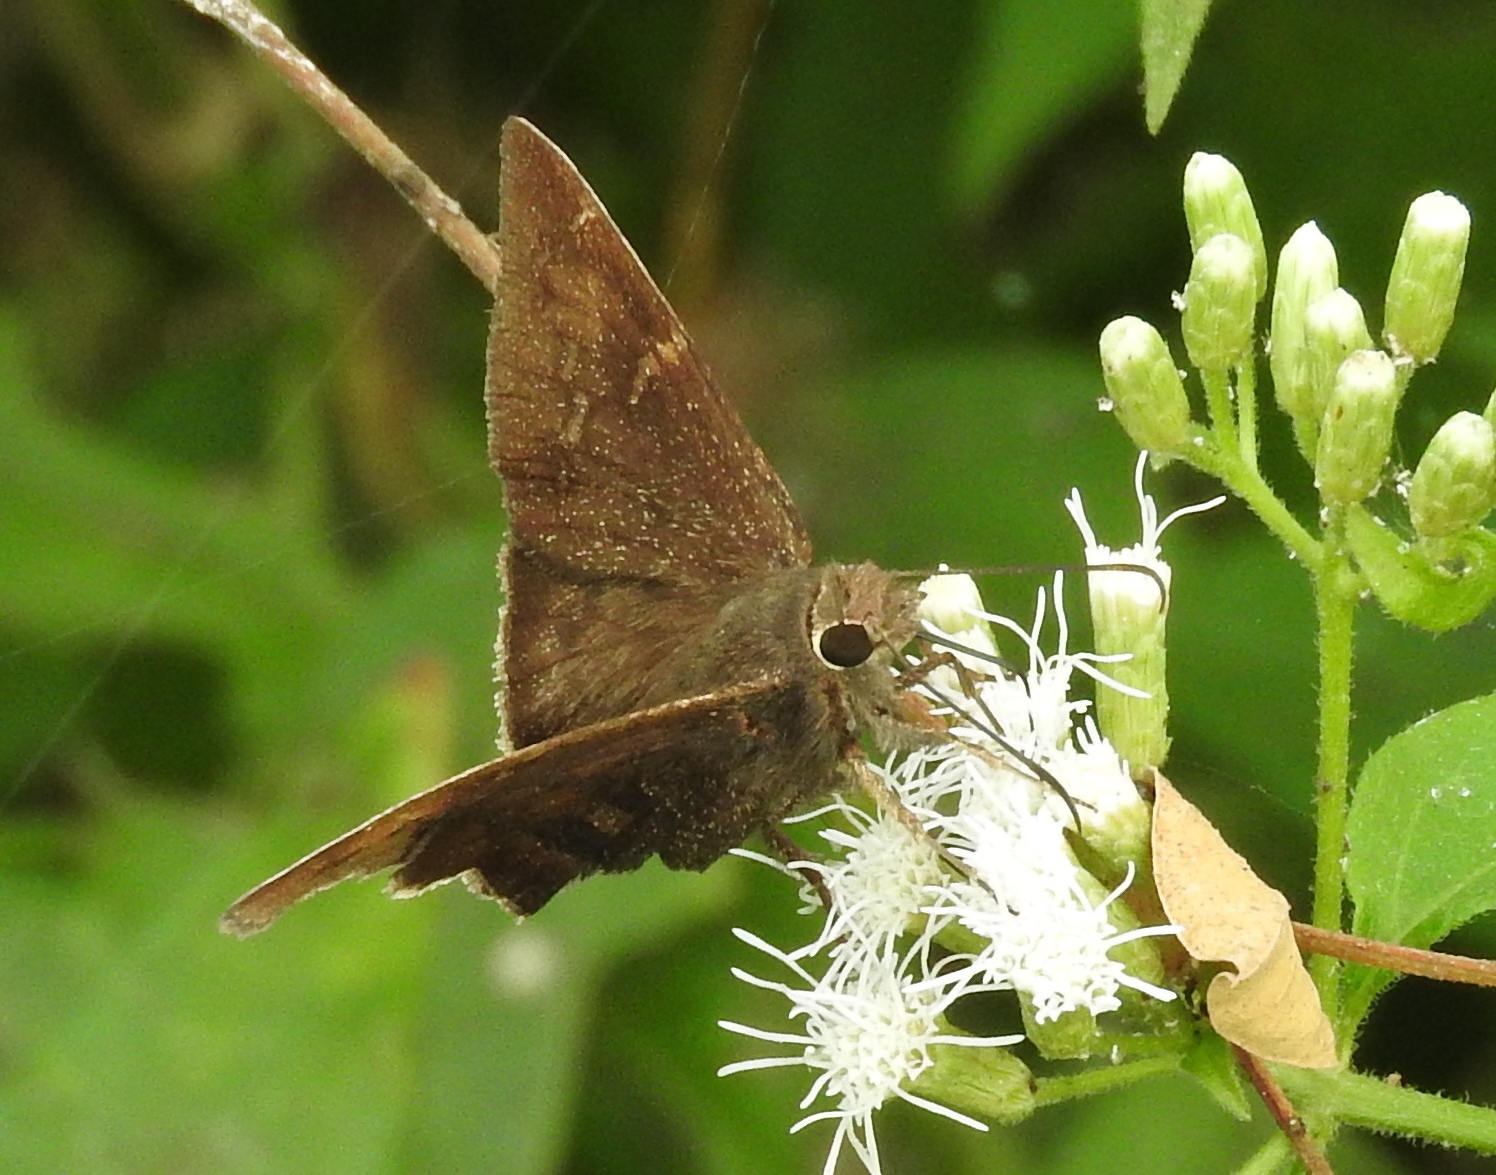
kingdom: Animalia
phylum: Arthropoda
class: Insecta
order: Lepidoptera
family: Hesperiidae
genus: Astraptes
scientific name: Astraptes
